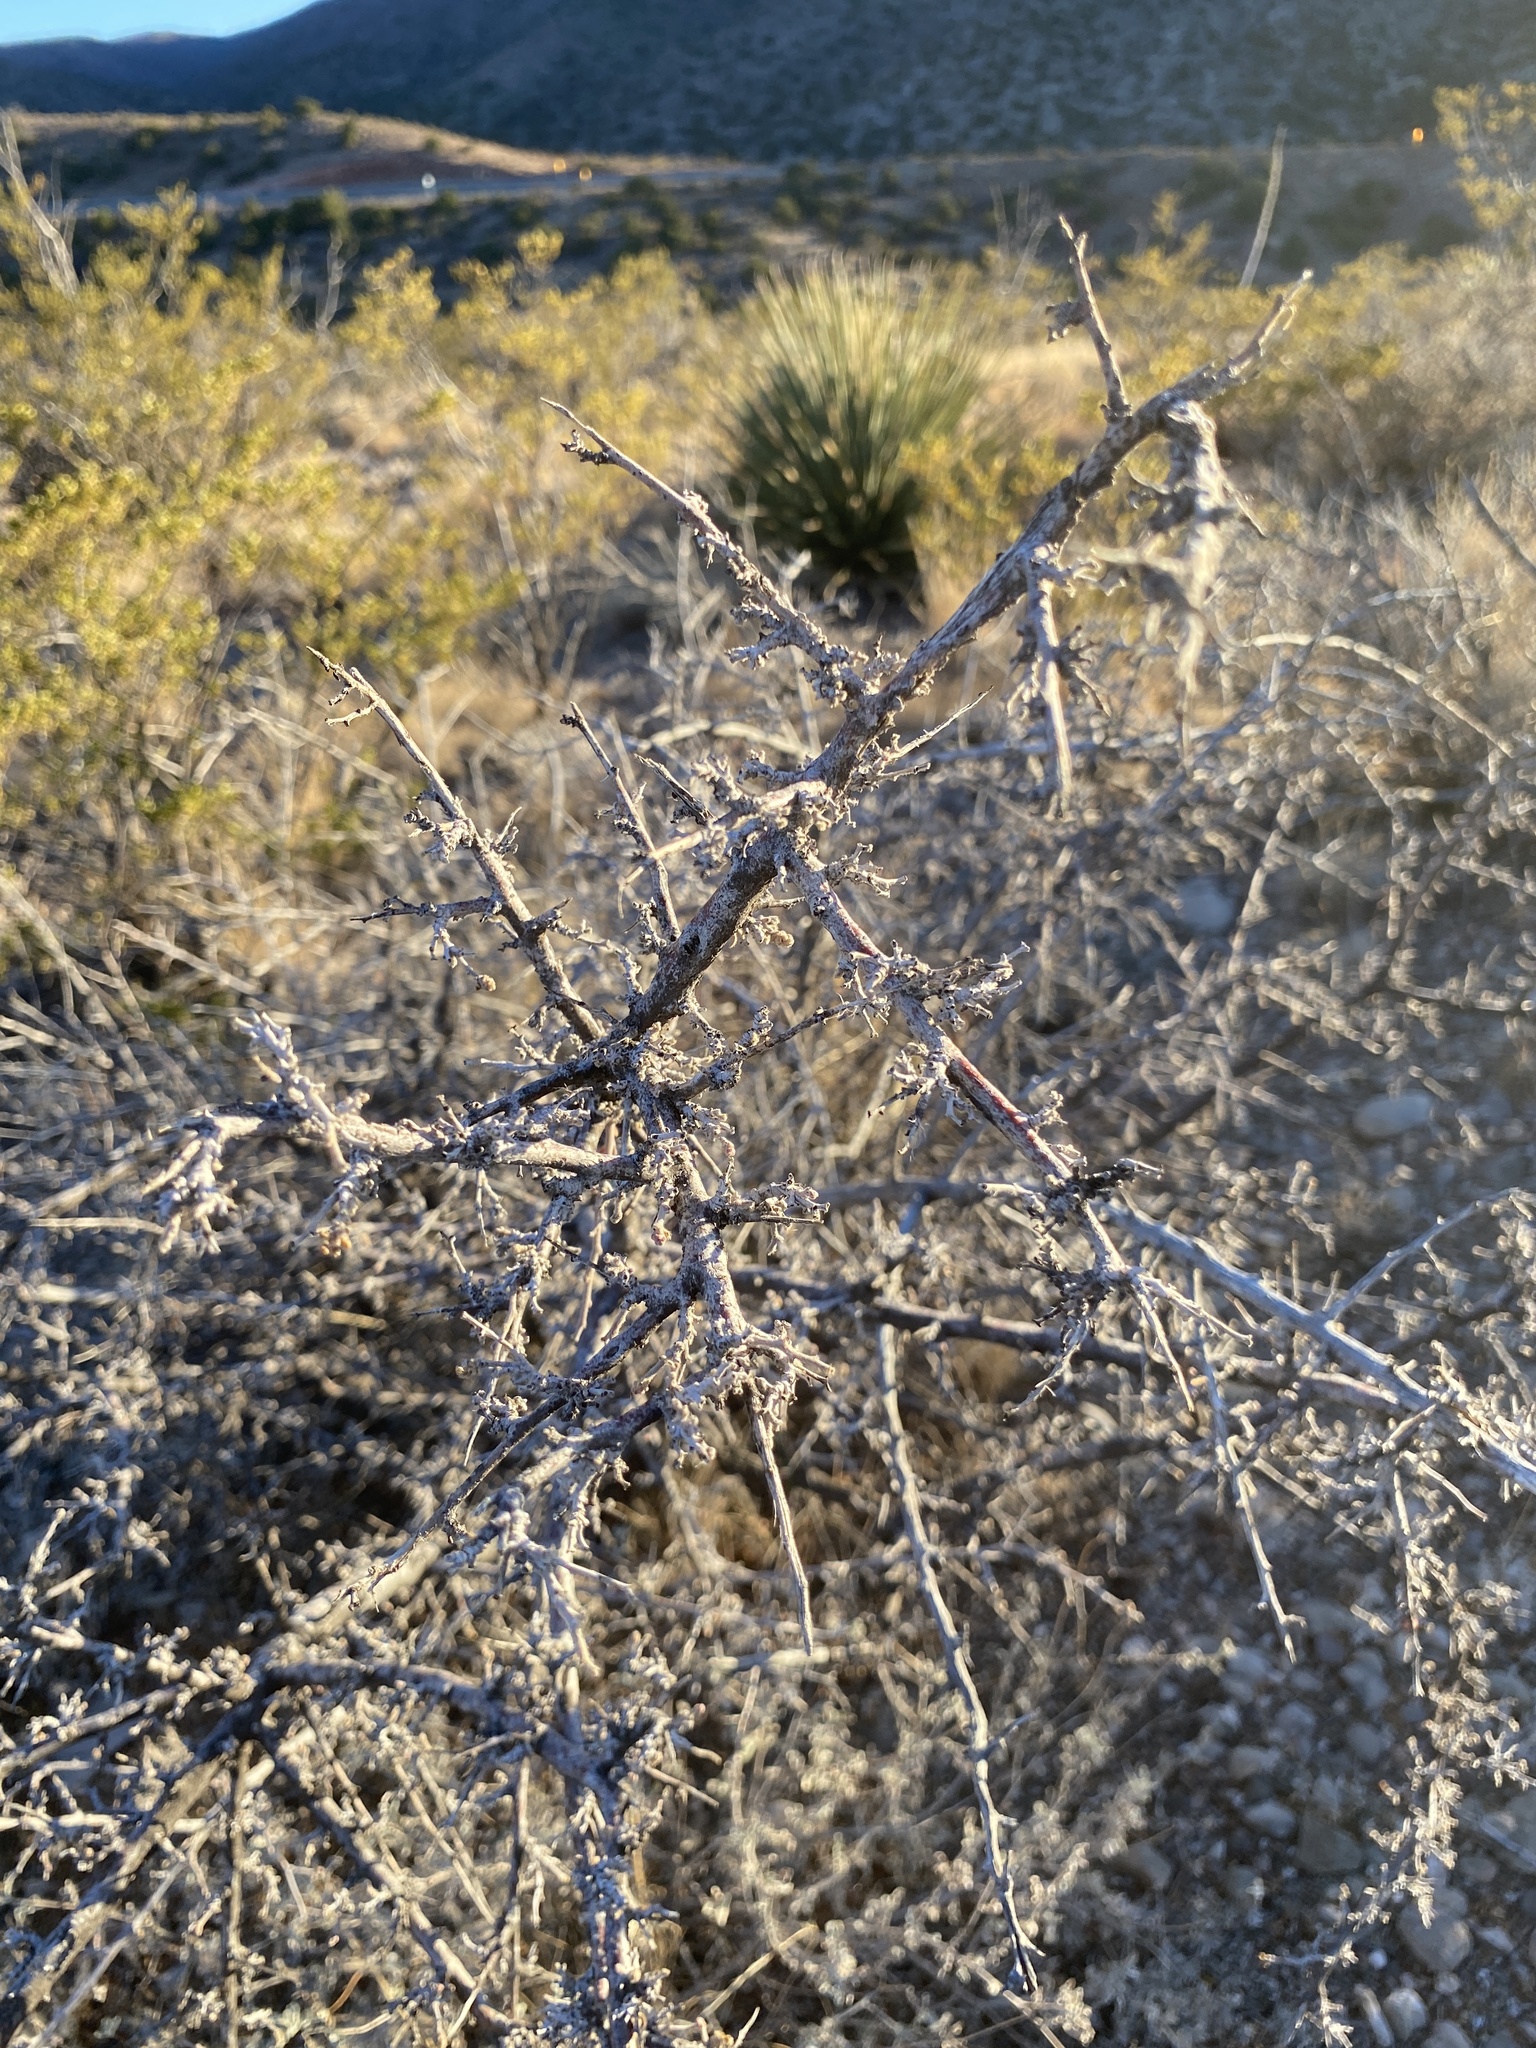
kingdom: Plantae
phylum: Tracheophyta
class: Magnoliopsida
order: Sapindales
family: Anacardiaceae
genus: Rhus
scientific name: Rhus microphylla
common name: Desert sumac
